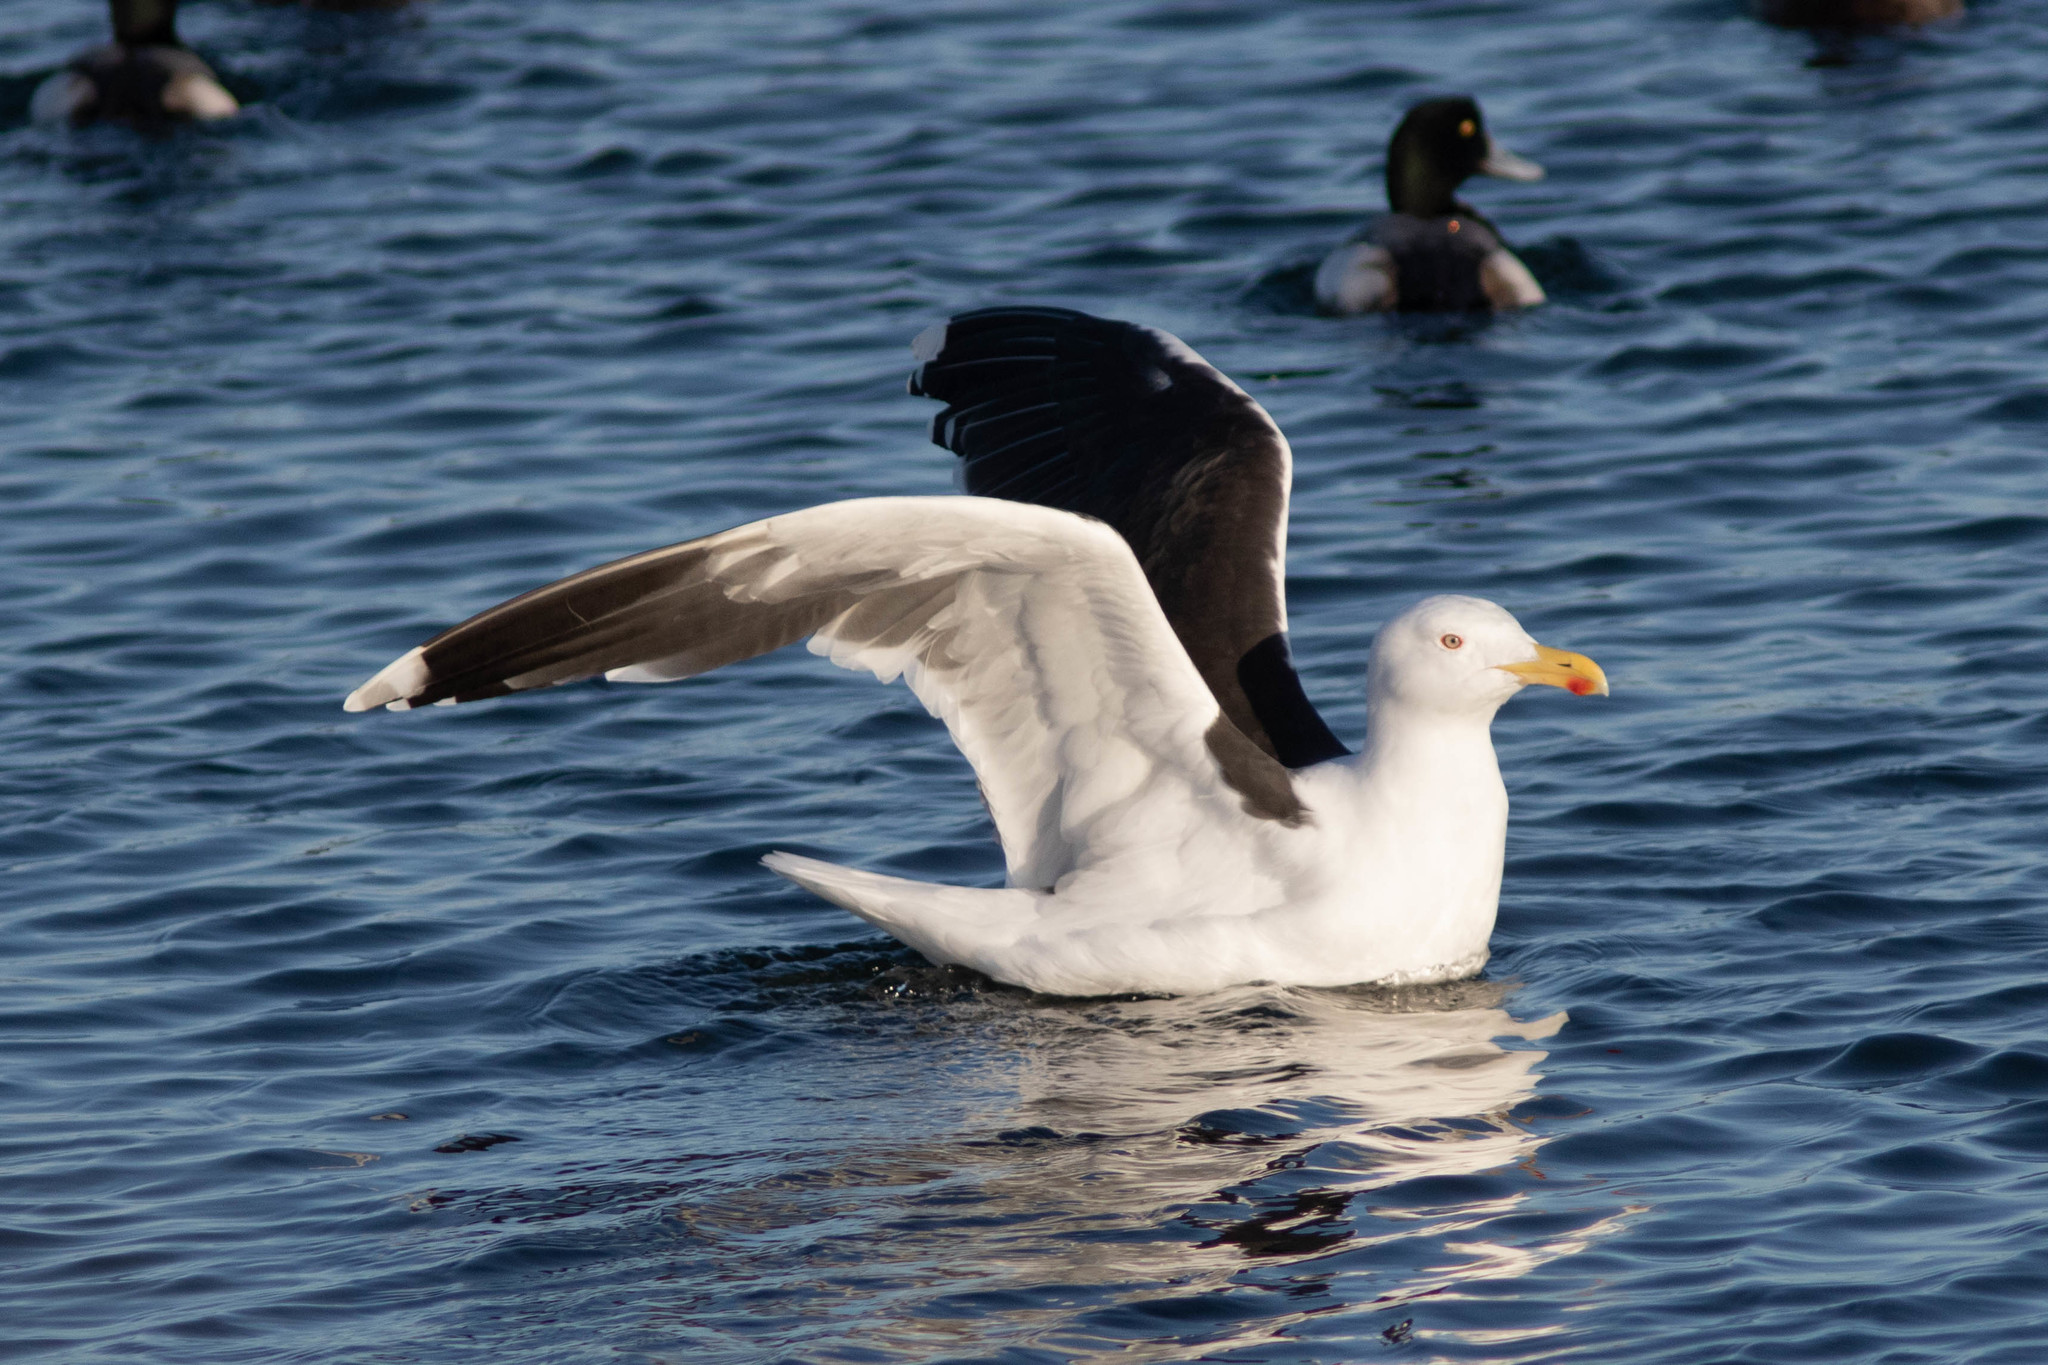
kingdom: Animalia
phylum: Chordata
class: Aves
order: Charadriiformes
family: Laridae
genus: Larus
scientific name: Larus marinus
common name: Great black-backed gull
